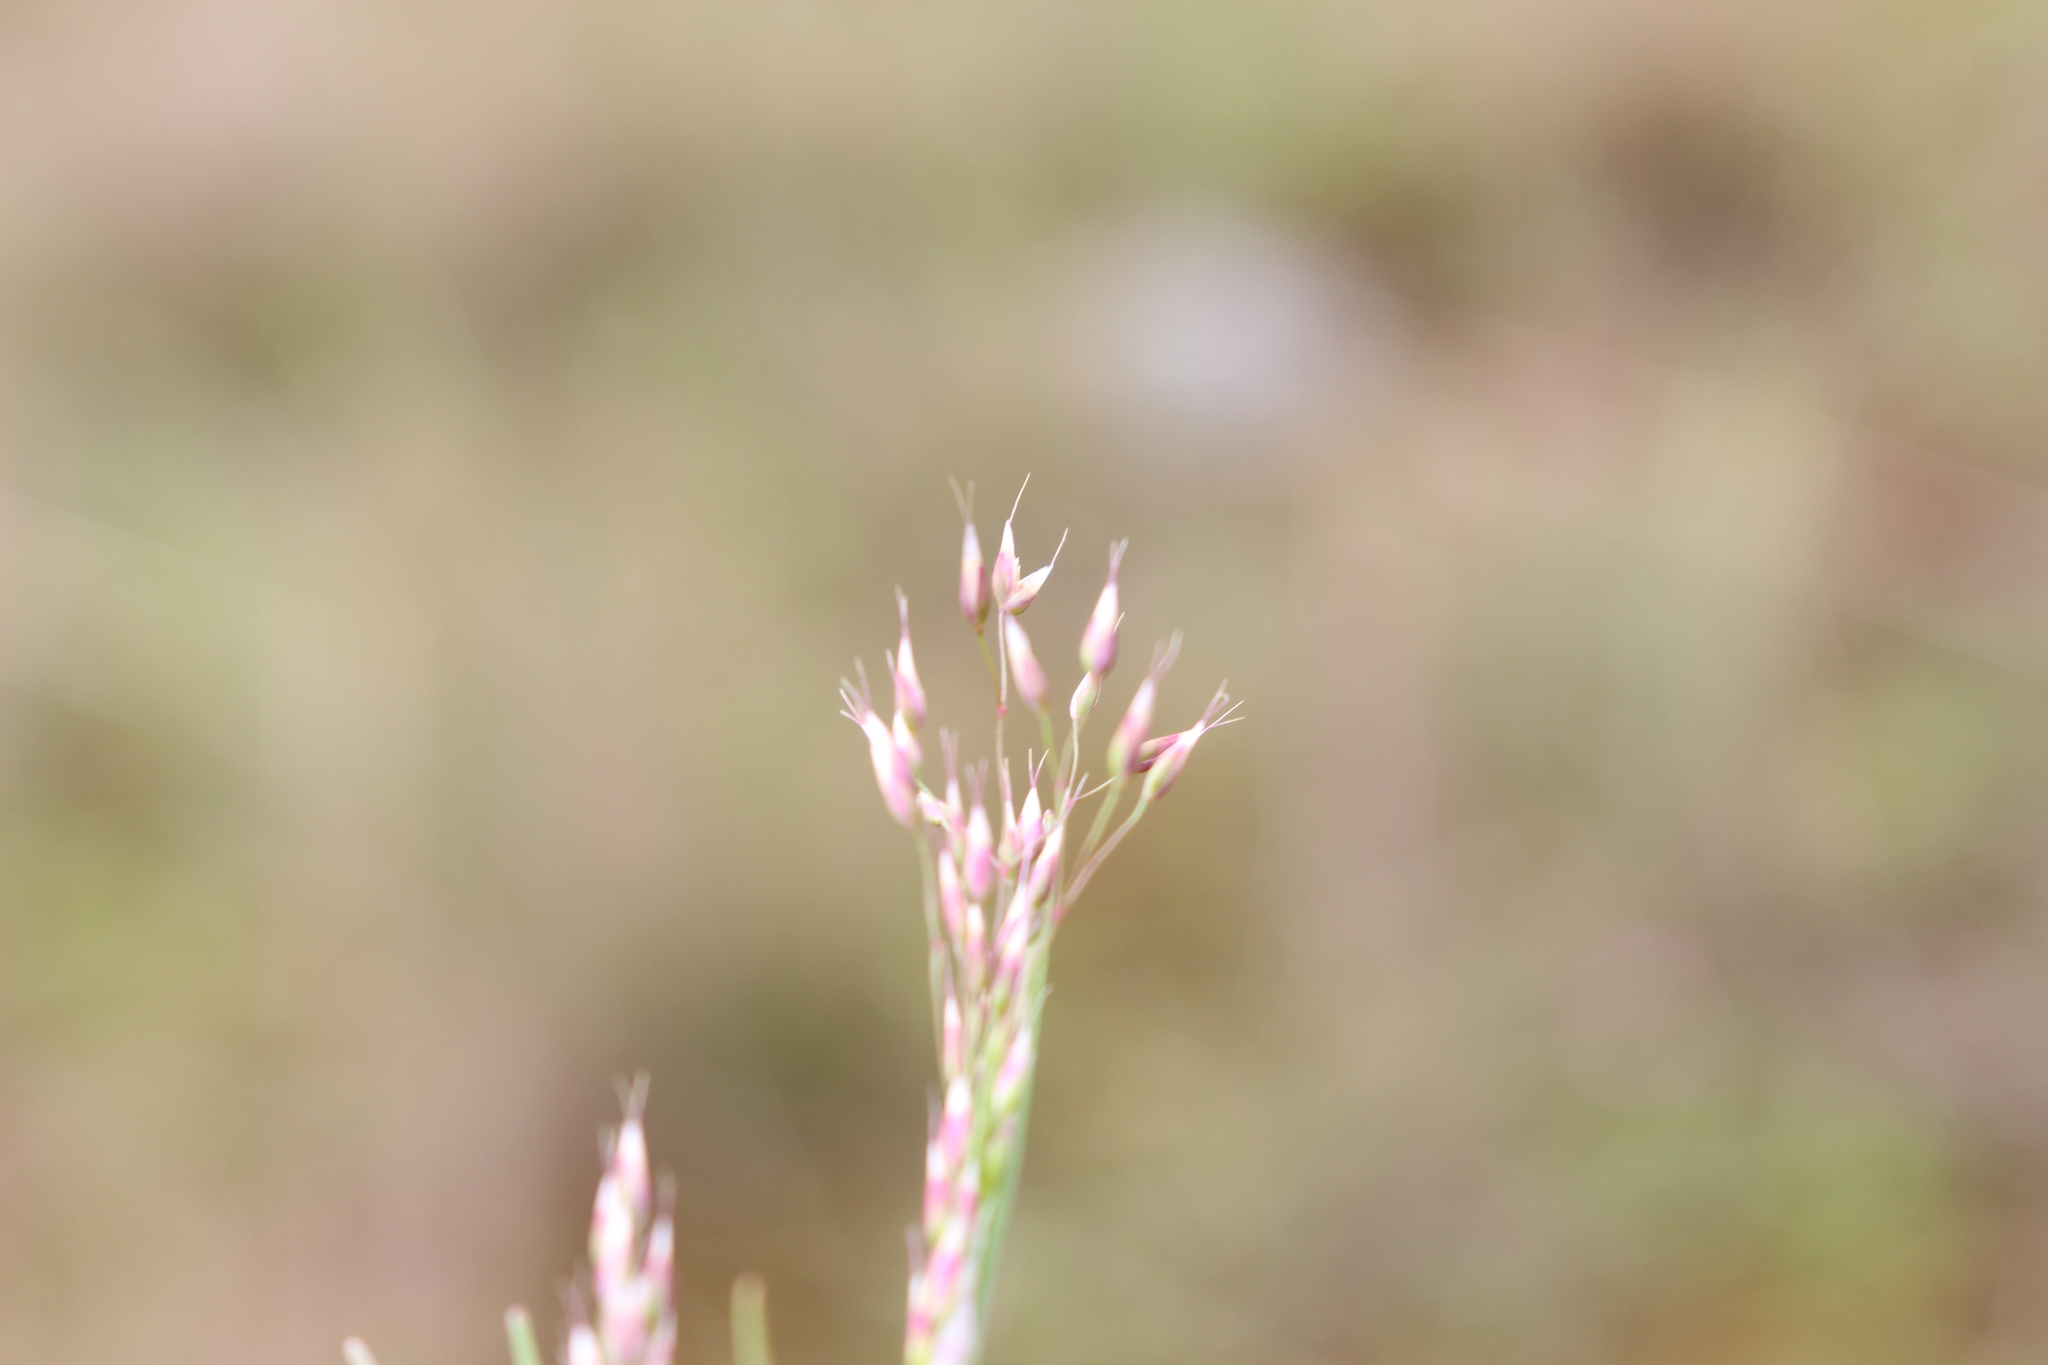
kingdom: Plantae
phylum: Tracheophyta
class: Liliopsida
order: Poales
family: Poaceae
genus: Aira
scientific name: Aira caryophyllea
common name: Silver hairgrass
